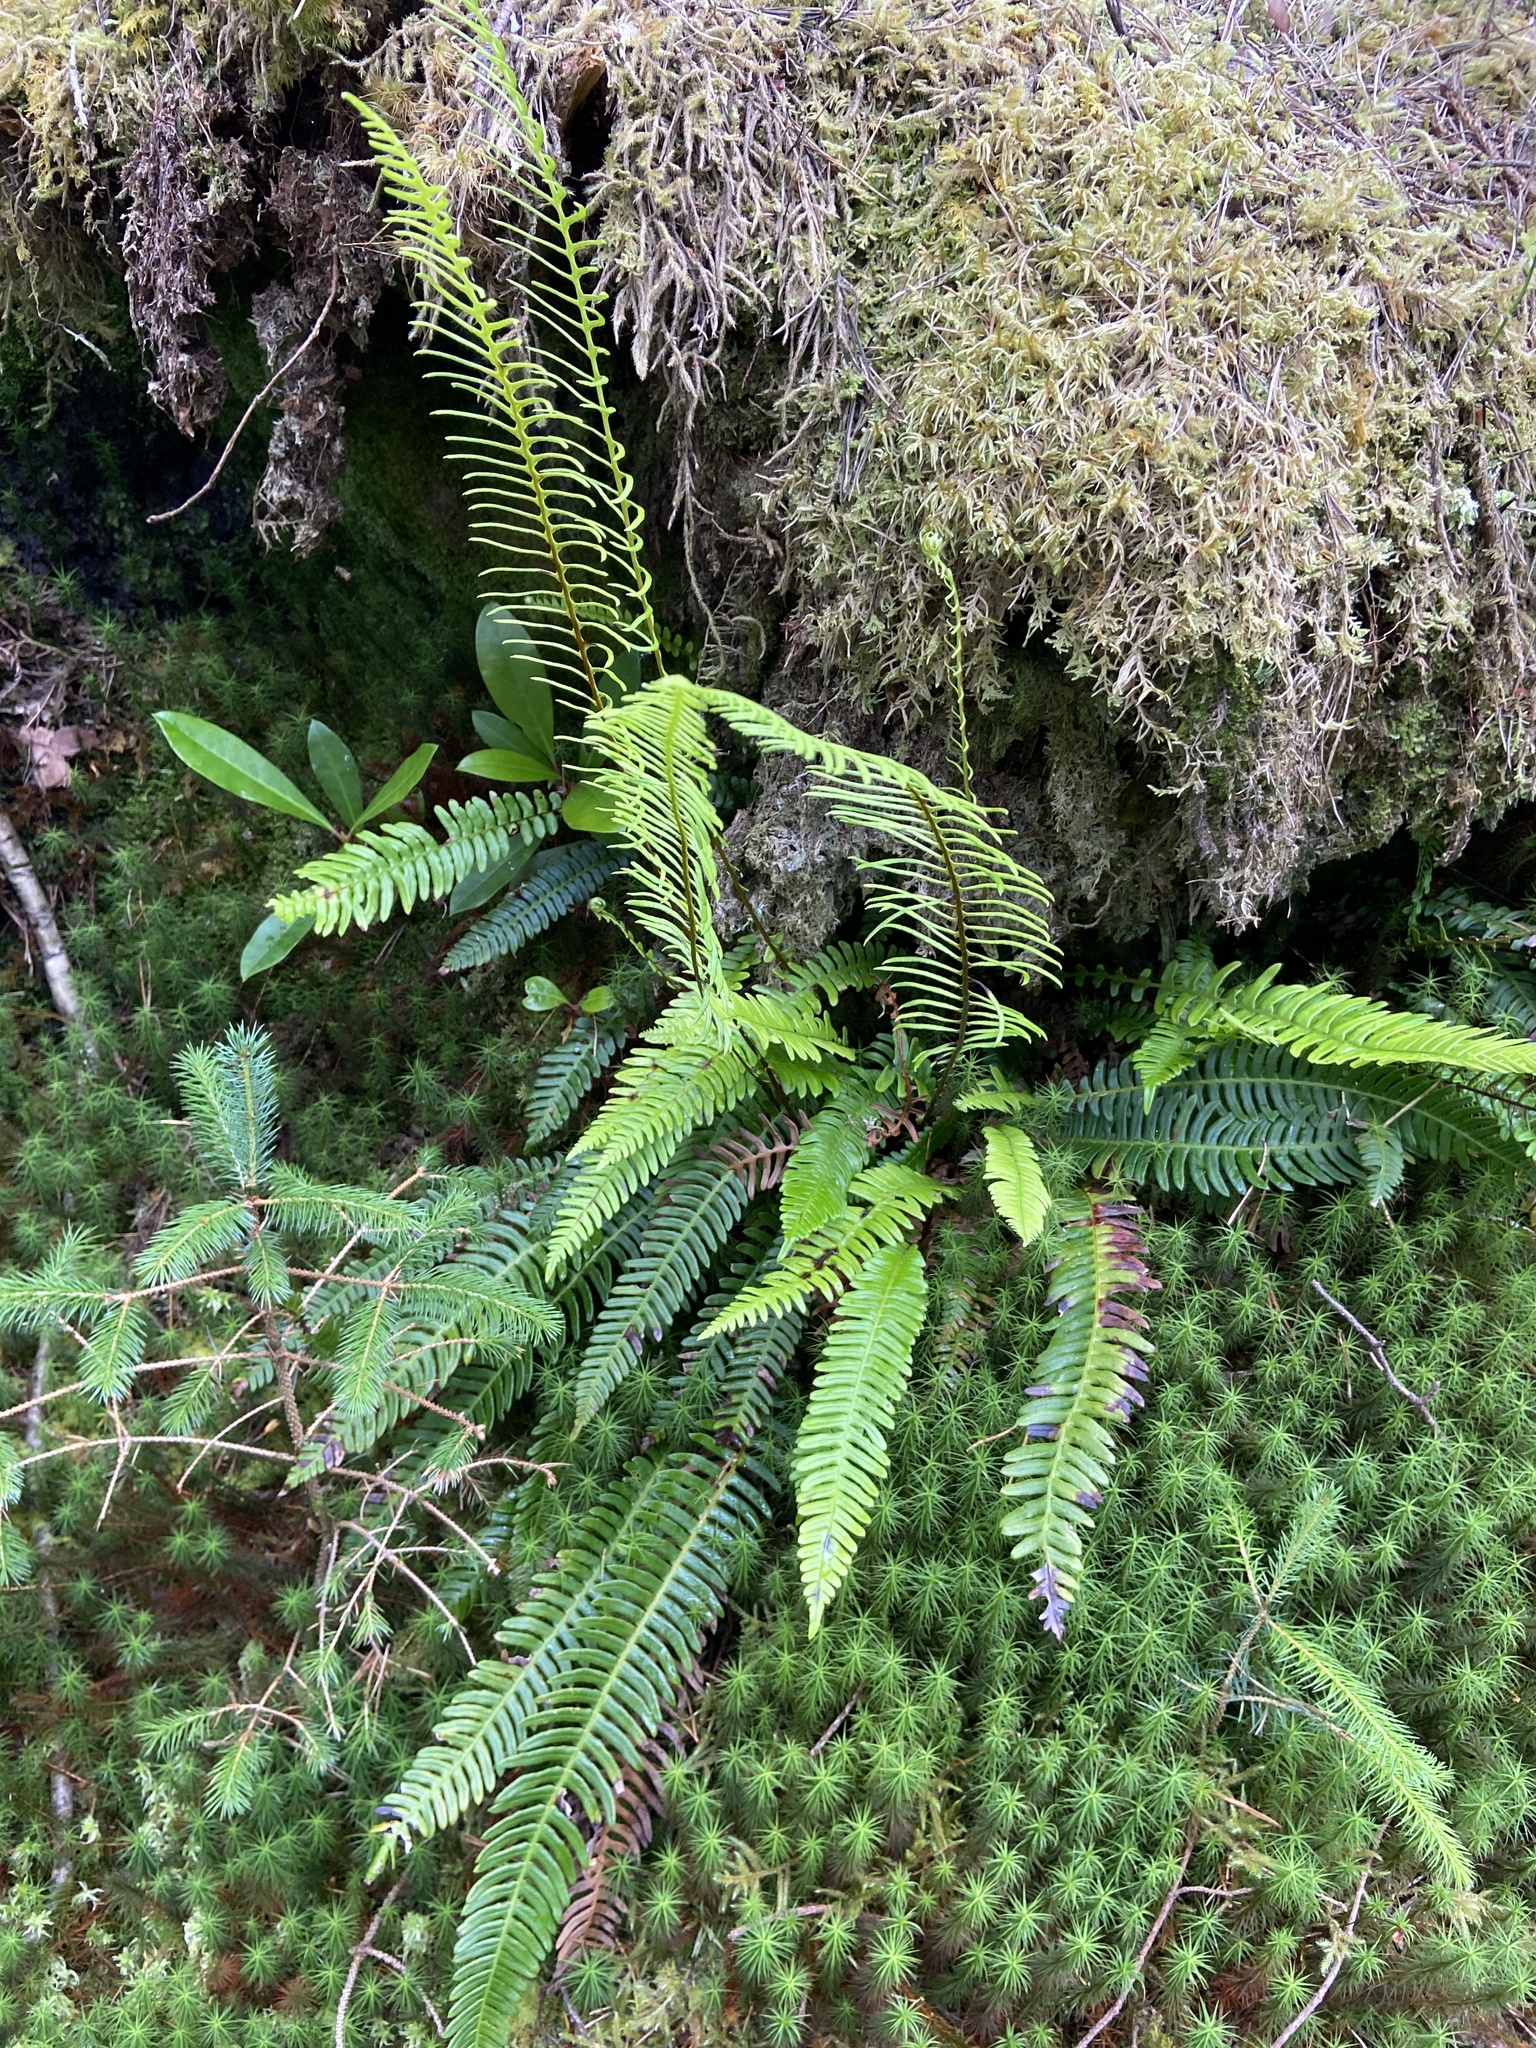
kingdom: Plantae
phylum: Tracheophyta
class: Polypodiopsida
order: Polypodiales
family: Blechnaceae
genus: Struthiopteris
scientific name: Struthiopteris spicant
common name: Deer fern
